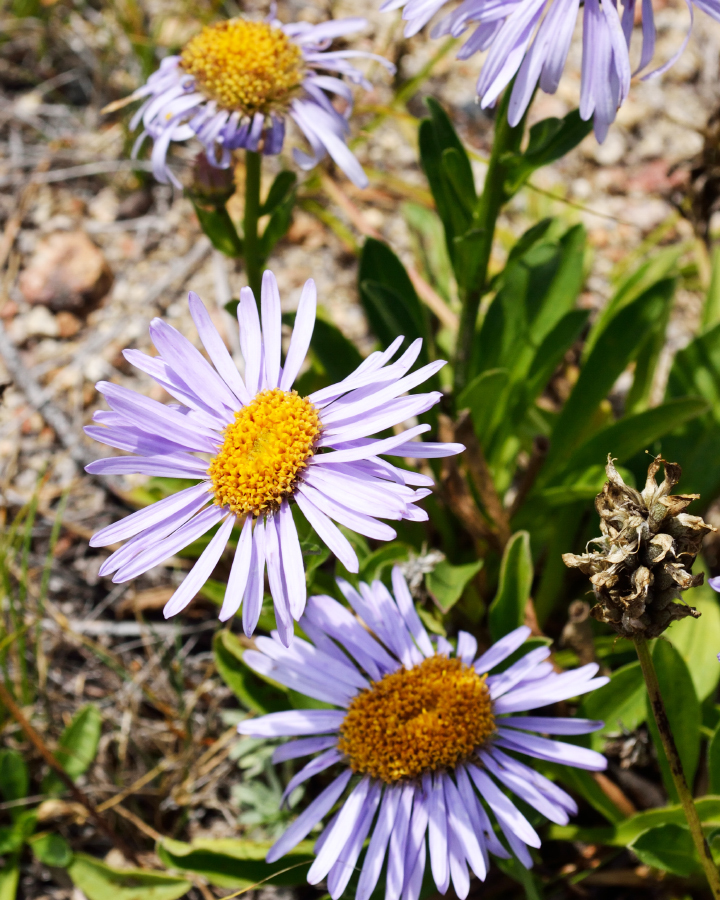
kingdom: Plantae
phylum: Tracheophyta
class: Magnoliopsida
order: Asterales
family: Asteraceae
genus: Aster
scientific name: Aster alpinus
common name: Alpine aster
